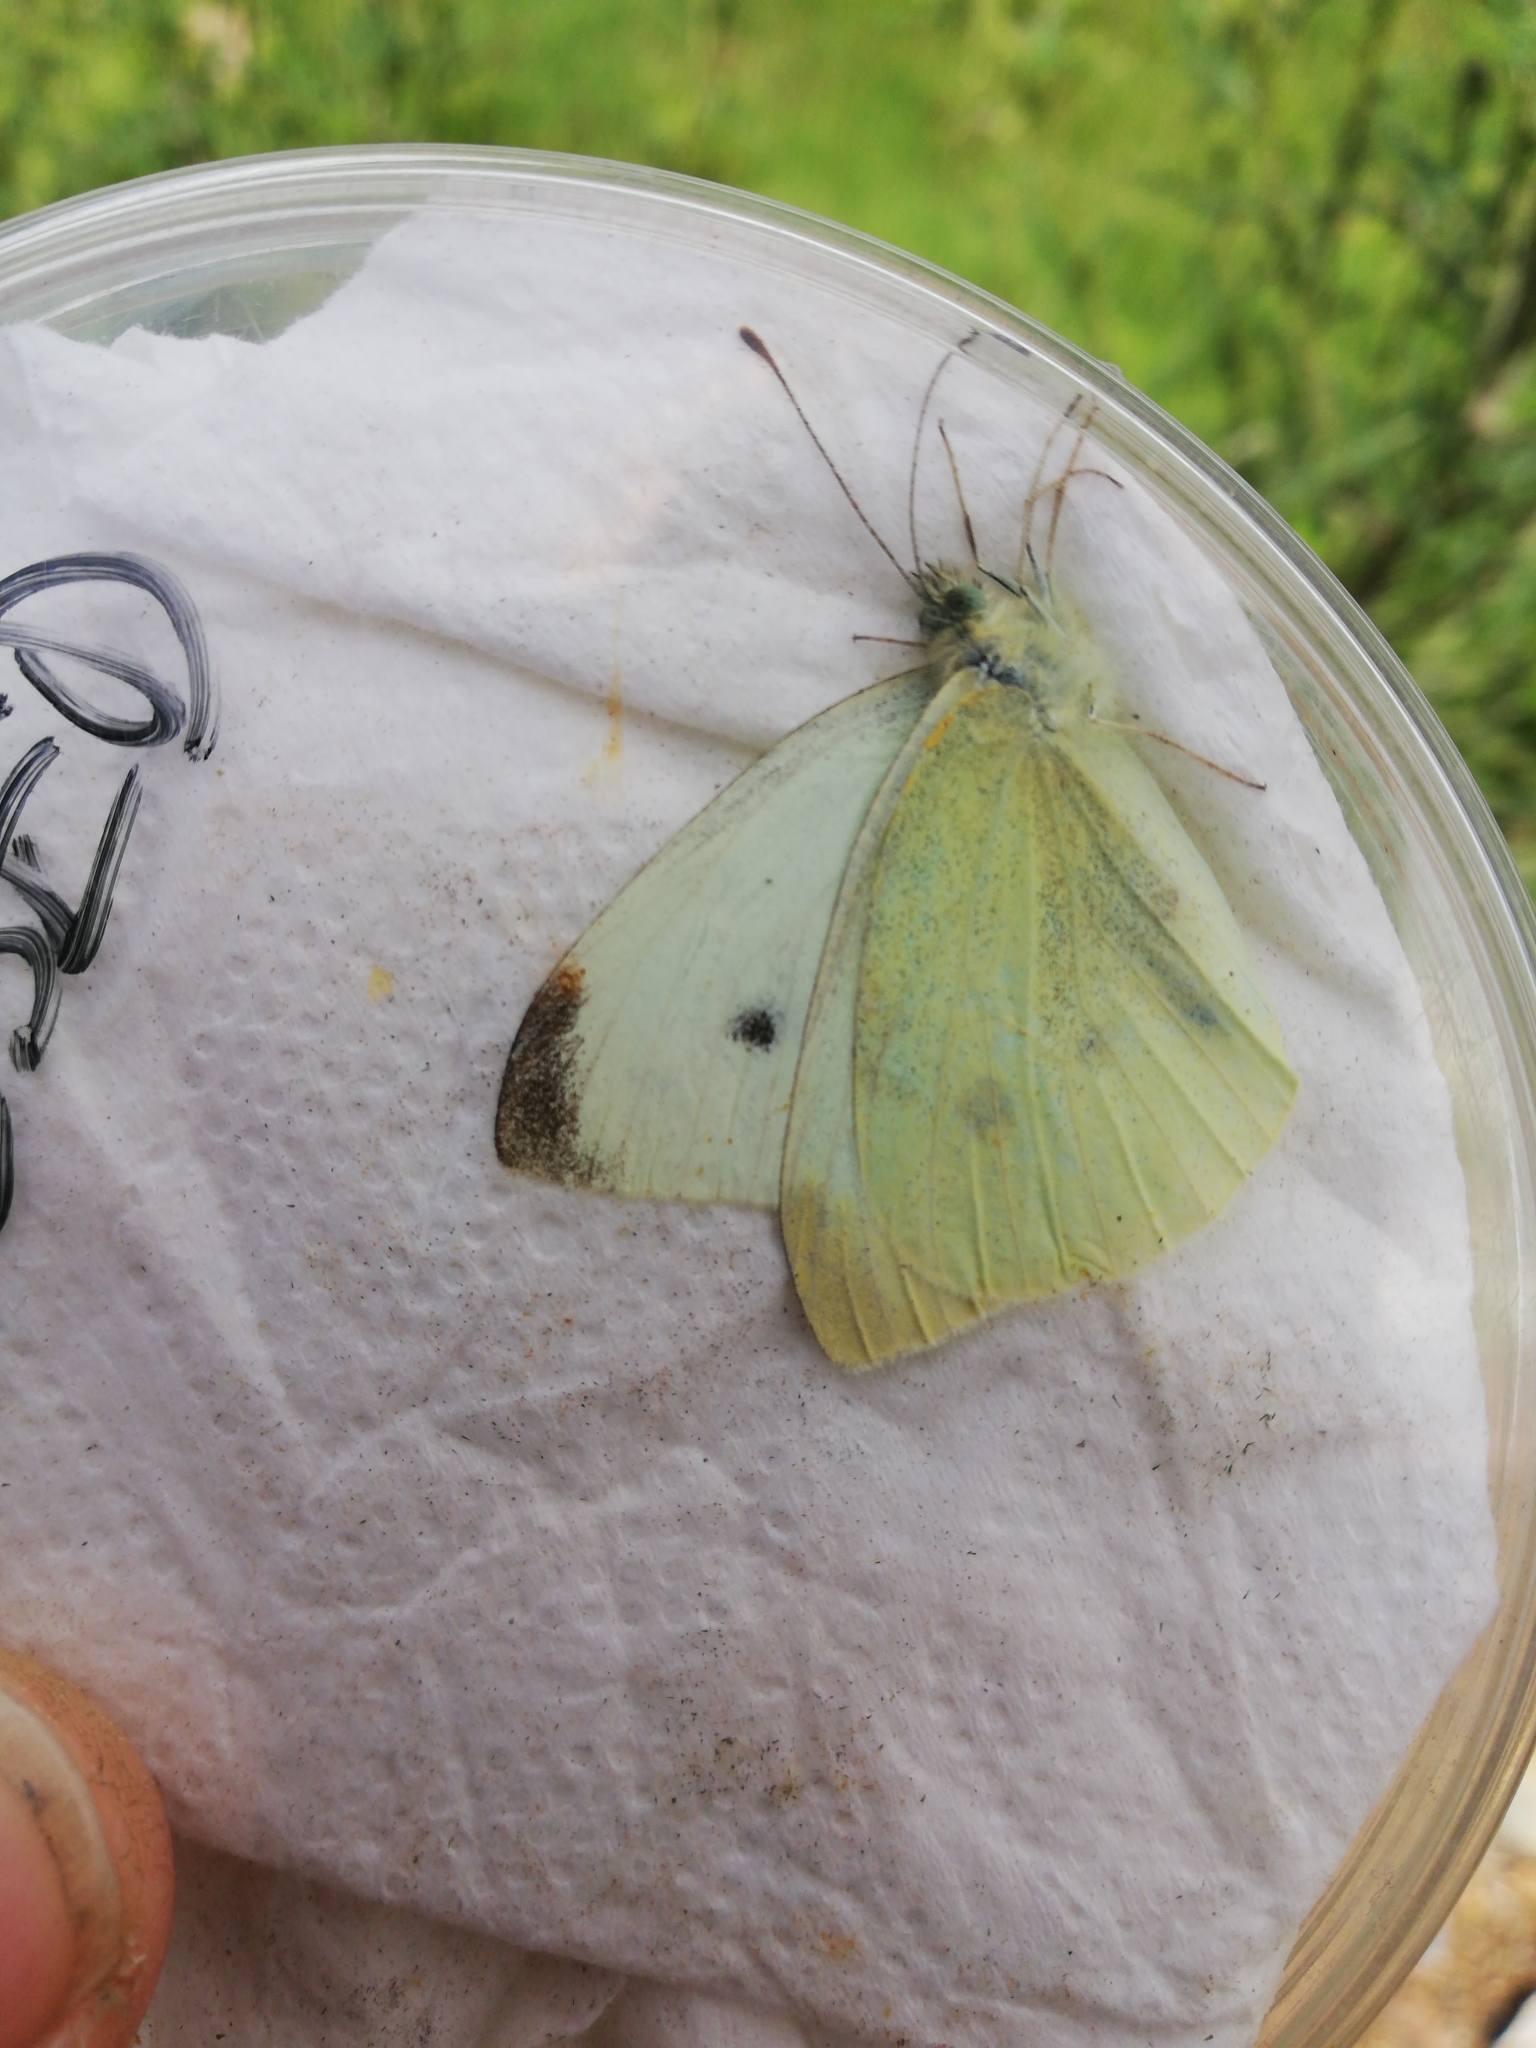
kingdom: Animalia
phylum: Arthropoda
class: Insecta
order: Lepidoptera
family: Pieridae
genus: Pieris
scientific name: Pieris rapae
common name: Small white
